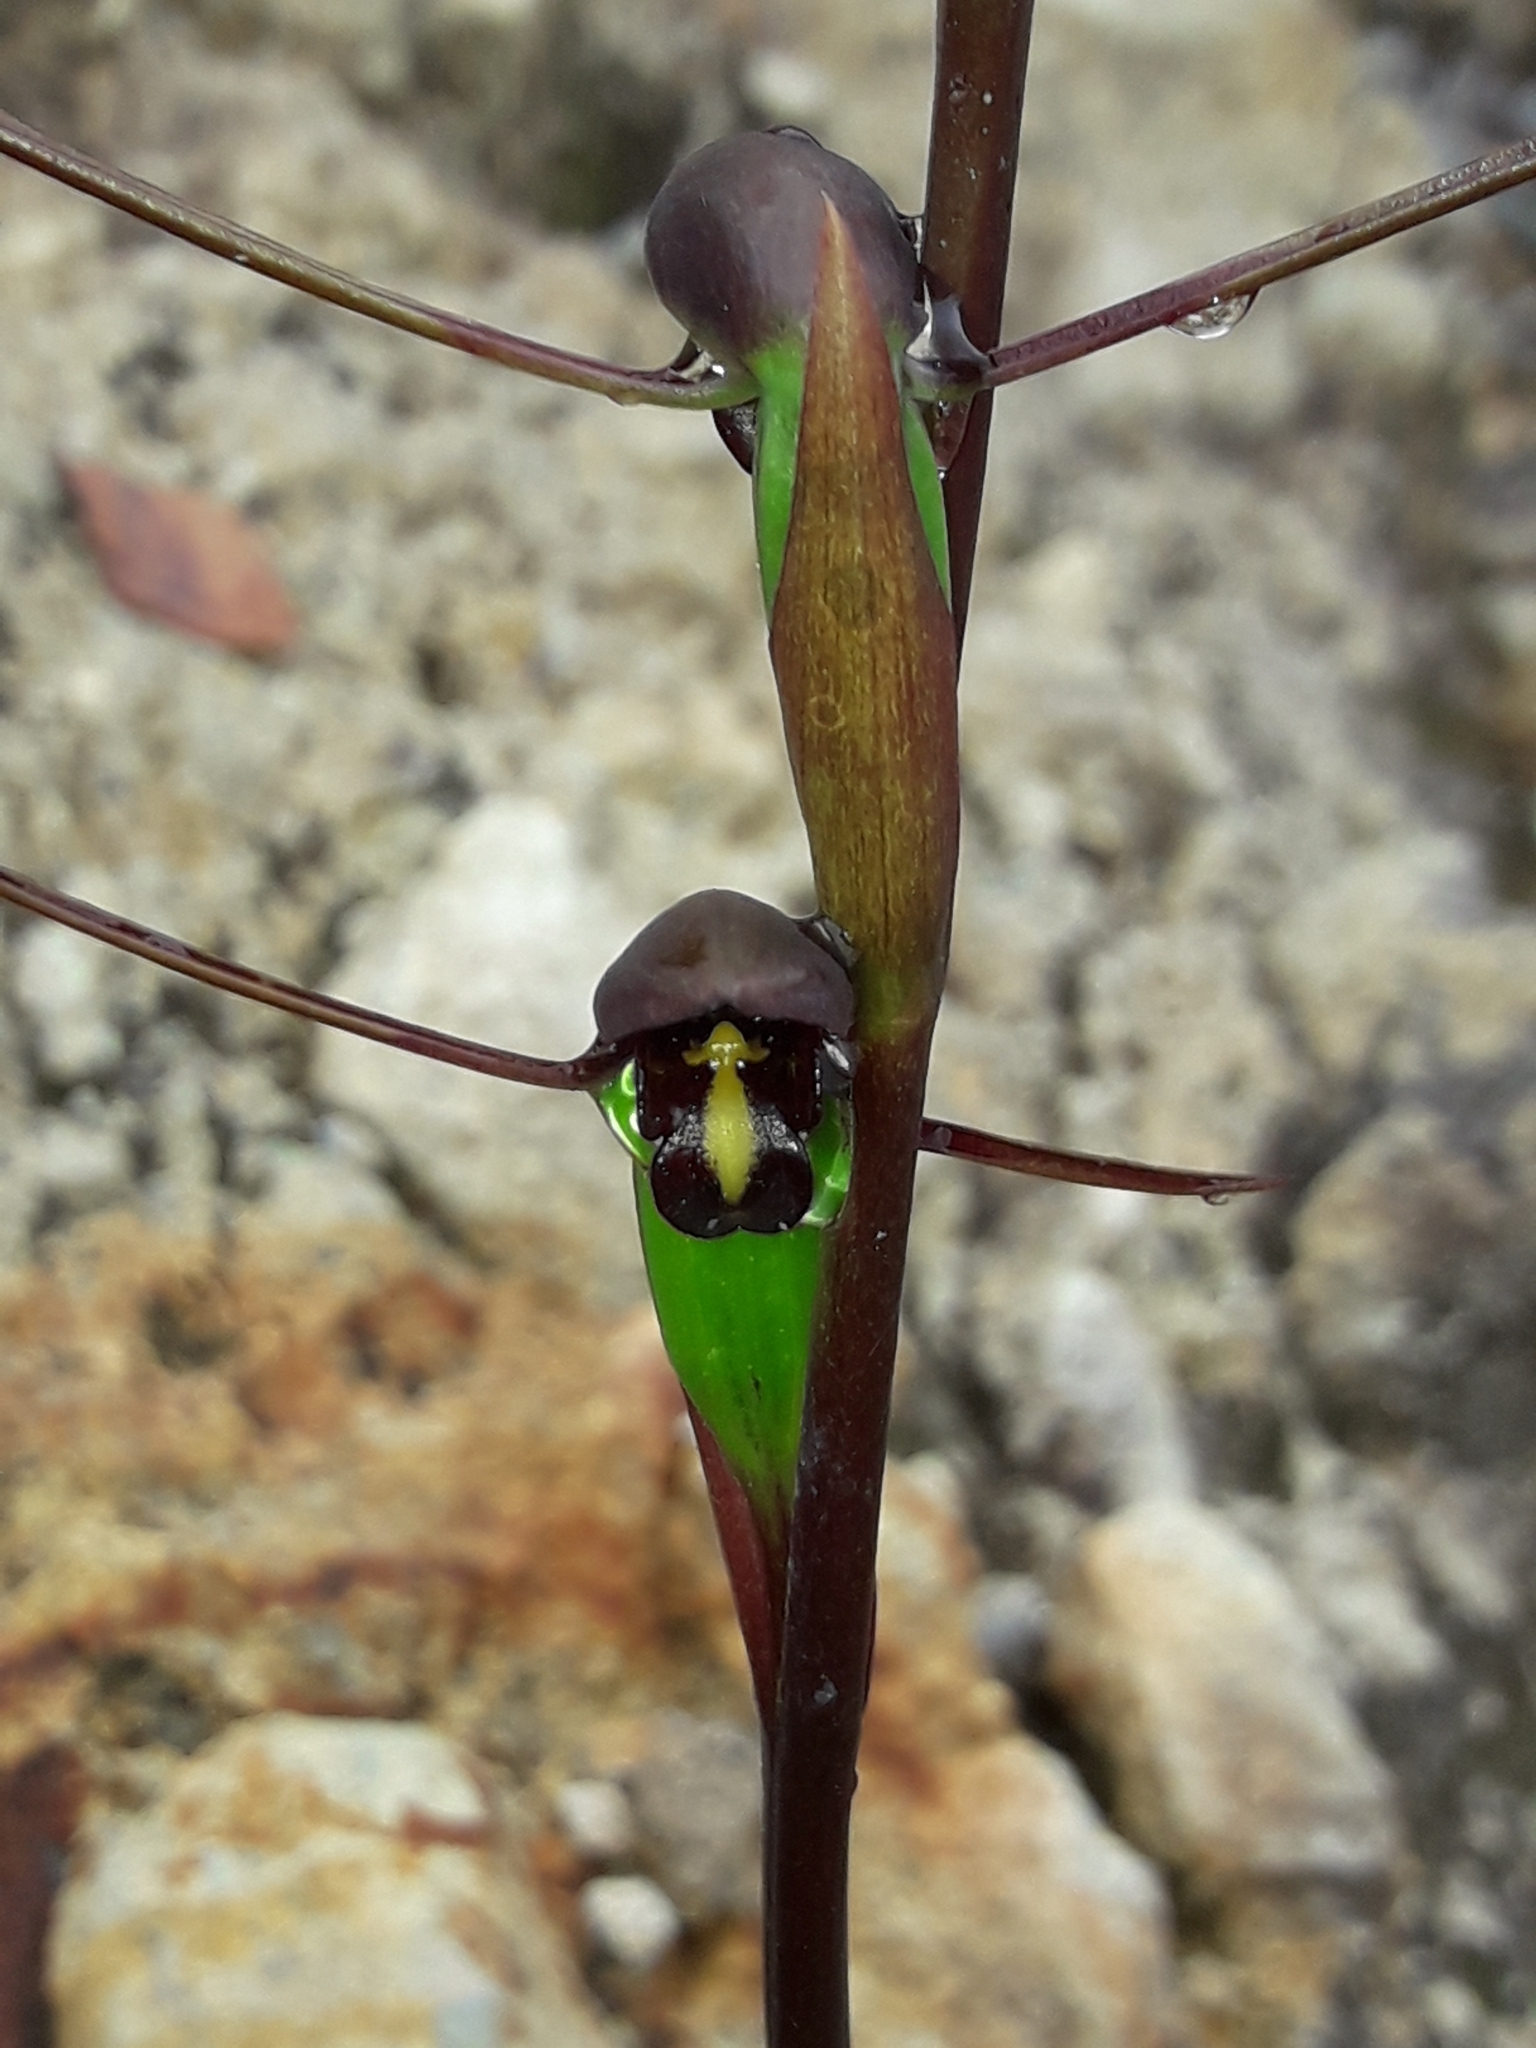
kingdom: Plantae
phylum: Tracheophyta
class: Liliopsida
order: Asparagales
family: Orchidaceae
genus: Orthoceras
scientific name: Orthoceras novae-zeelandiae
